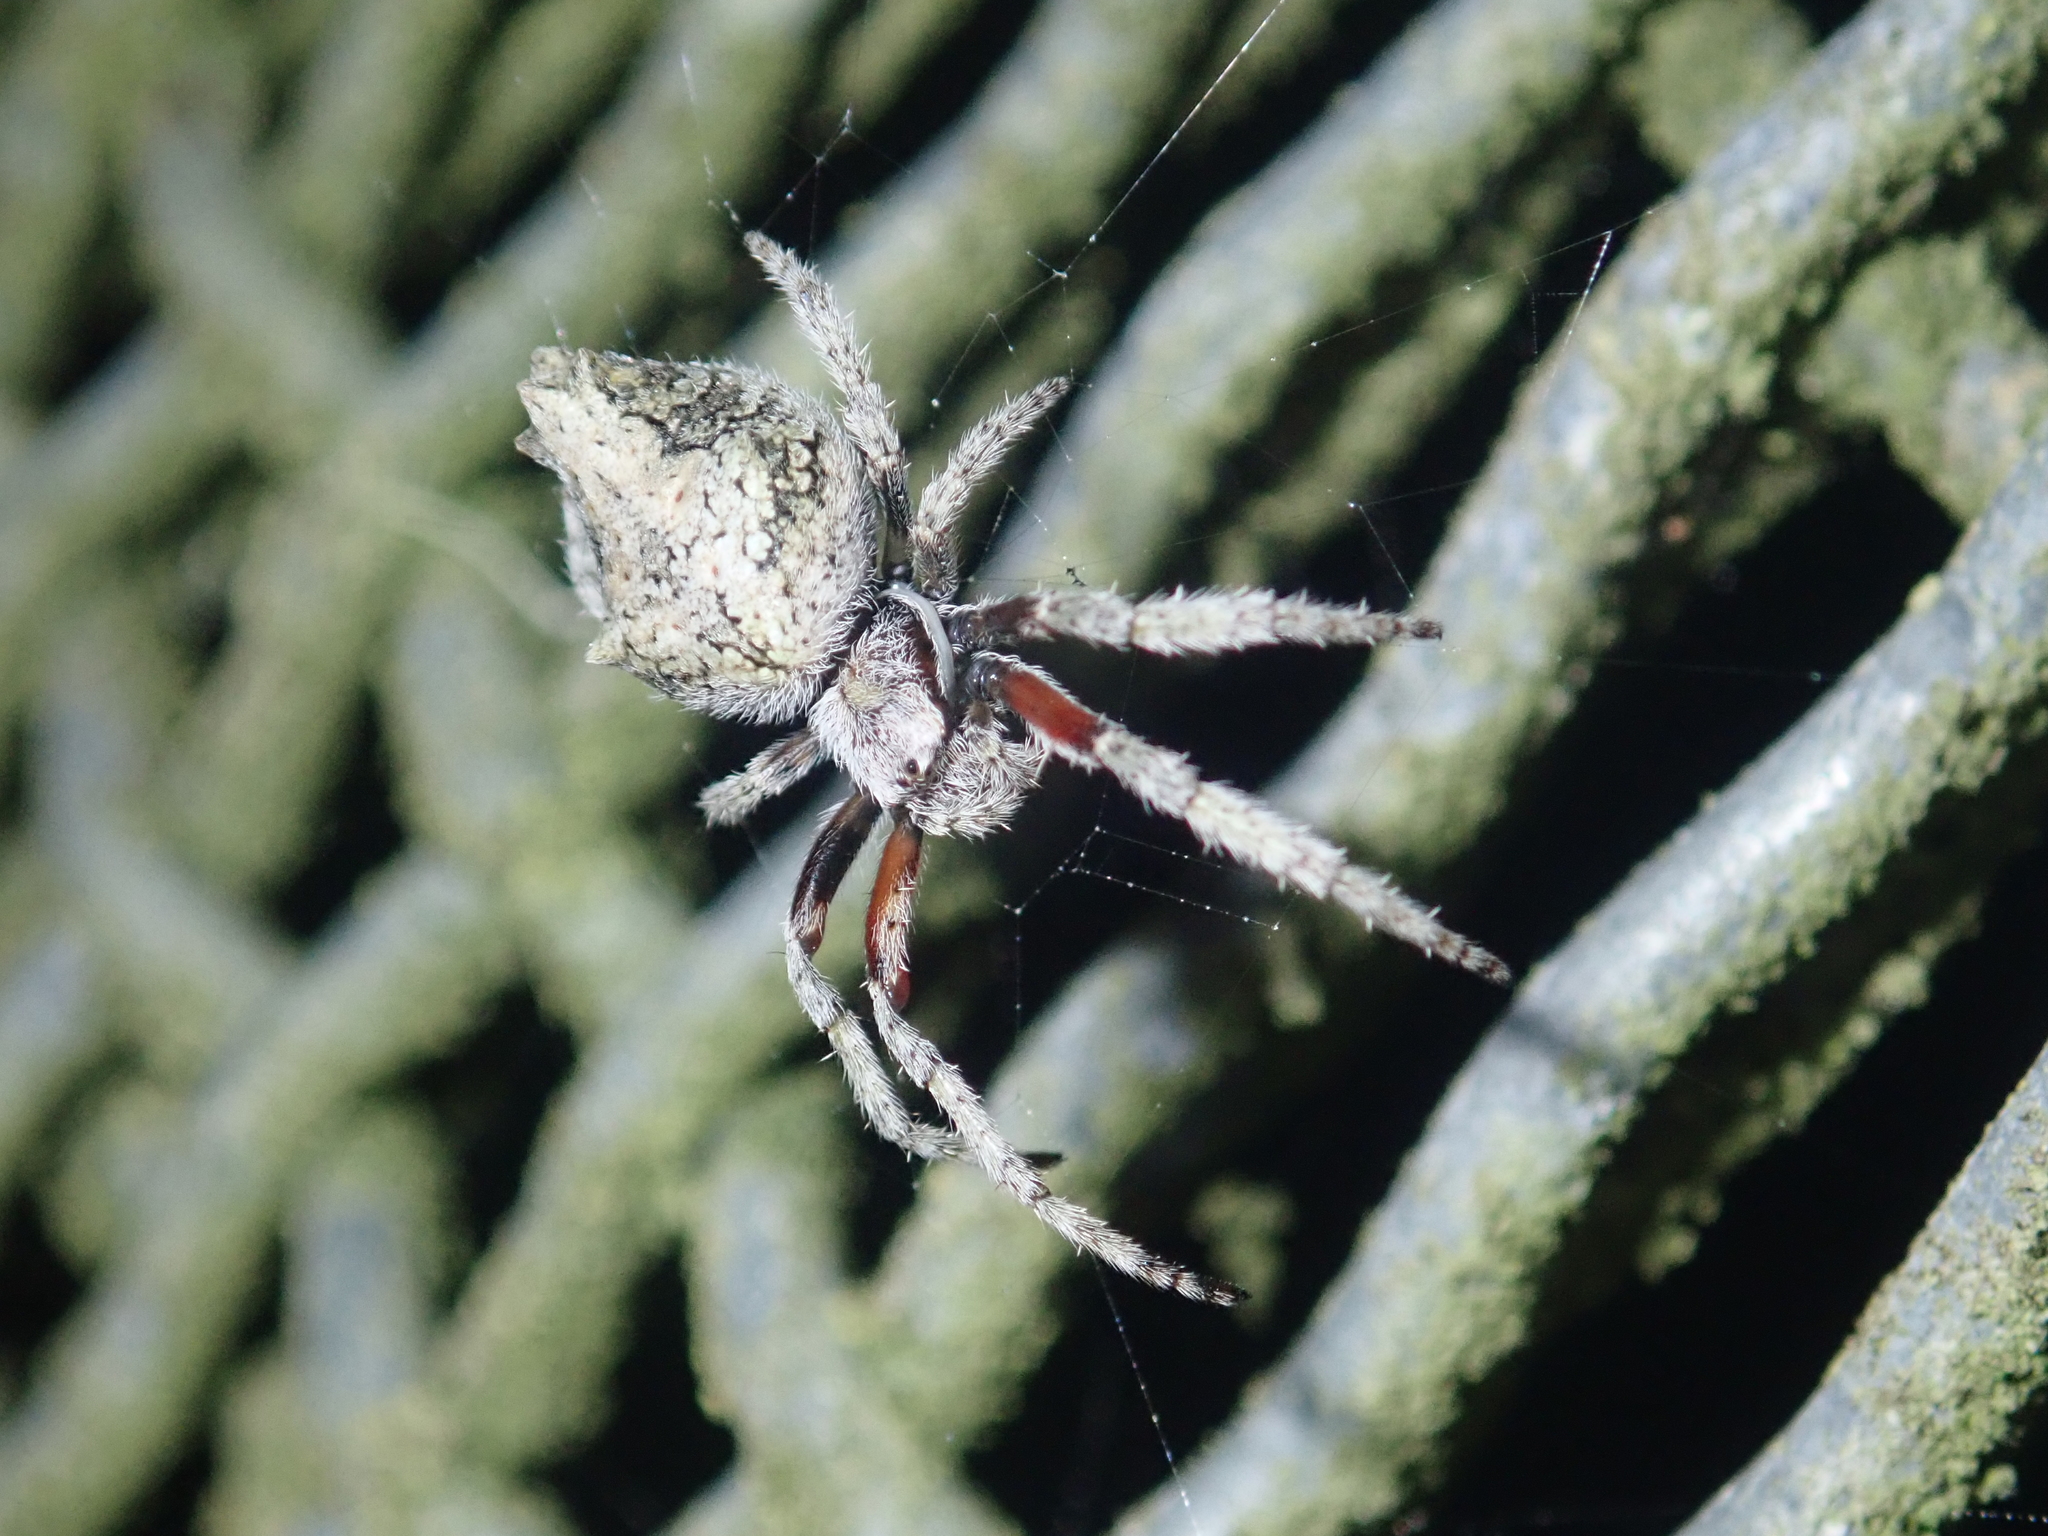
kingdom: Animalia
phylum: Arthropoda
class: Arachnida
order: Araneae
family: Araneidae
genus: Eriophora
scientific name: Eriophora pustulosa
